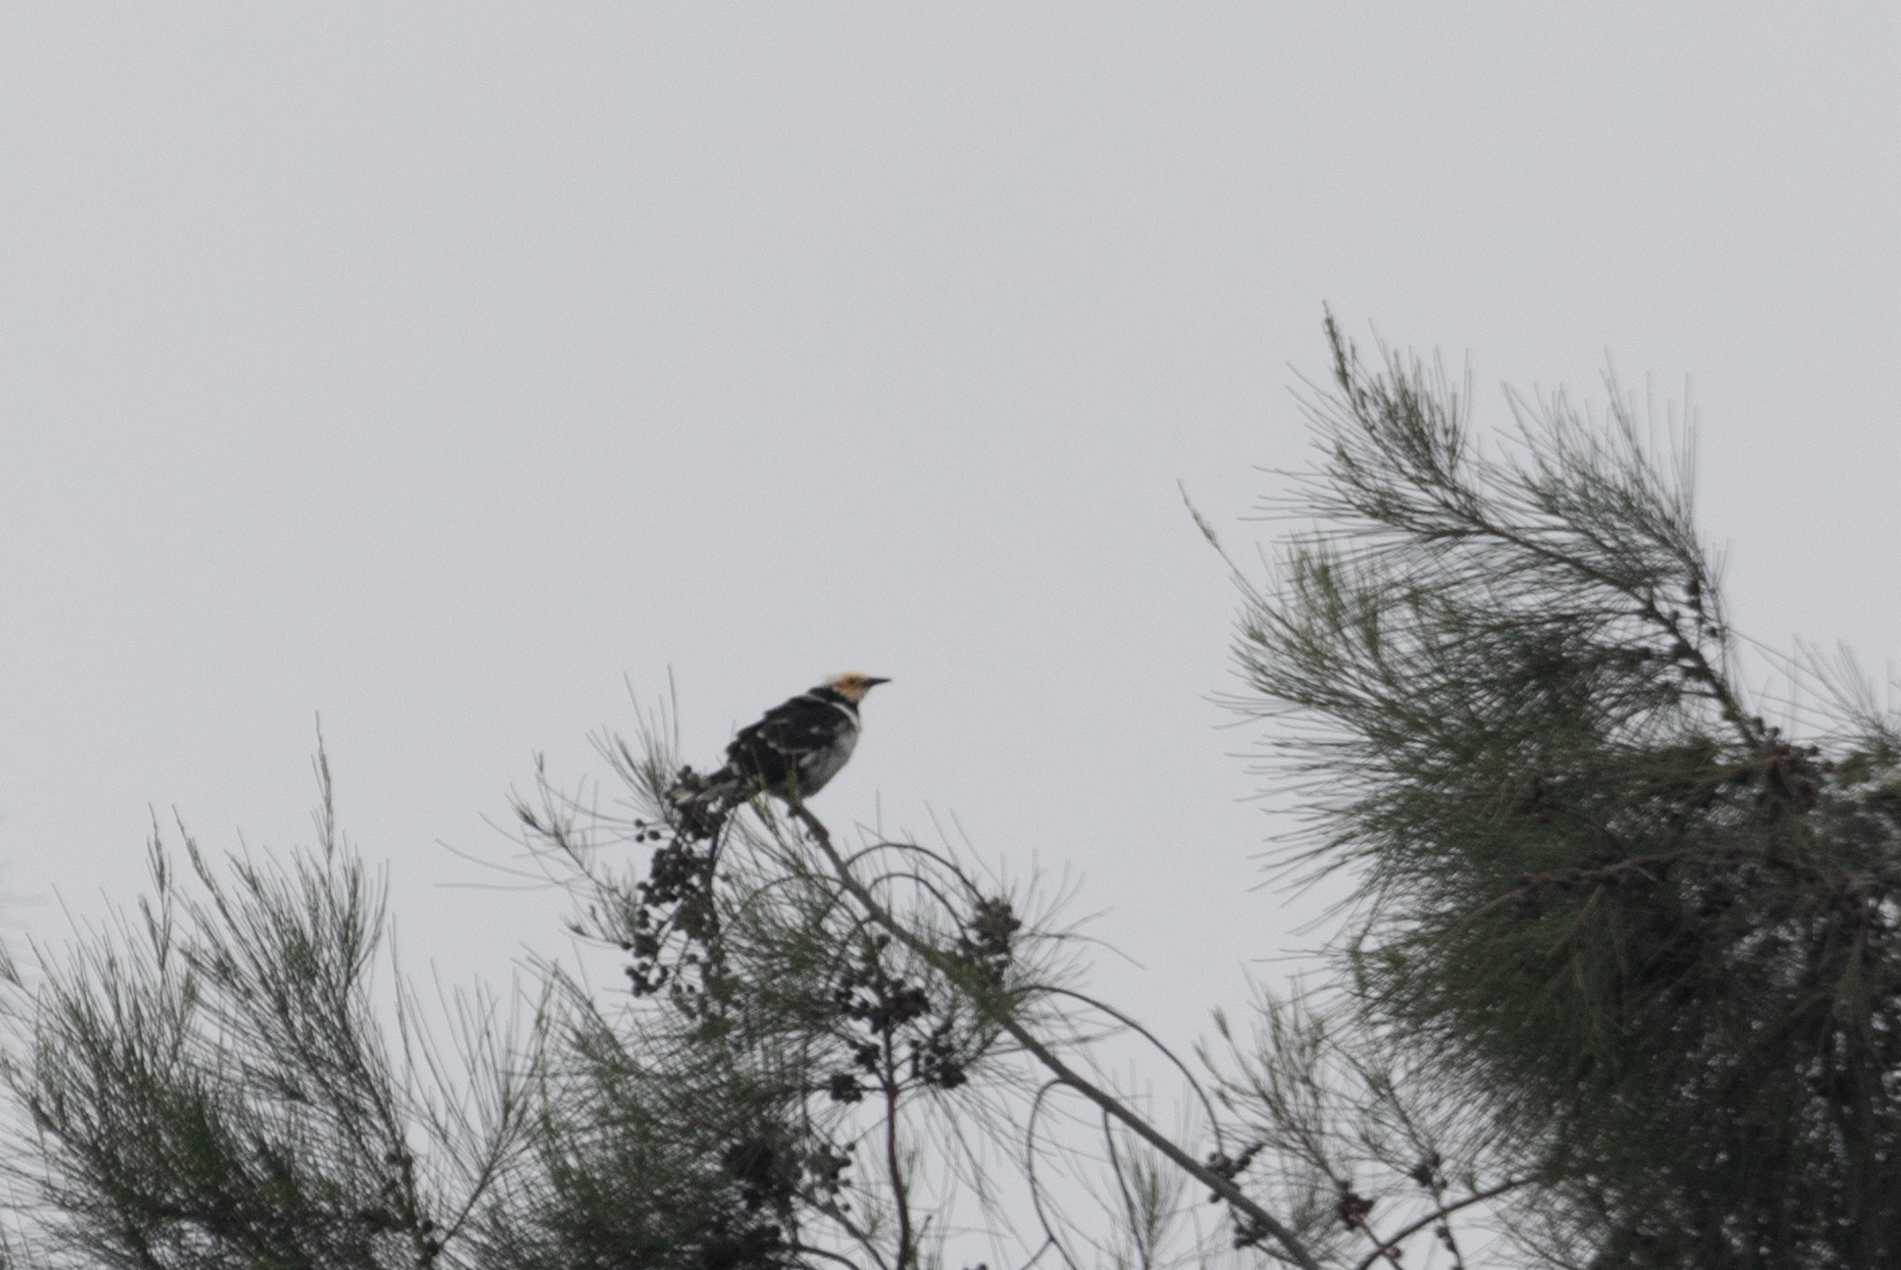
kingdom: Animalia
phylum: Chordata
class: Aves
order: Passeriformes
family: Sturnidae
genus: Gracupica
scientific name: Gracupica nigricollis
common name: Black-collared starling
